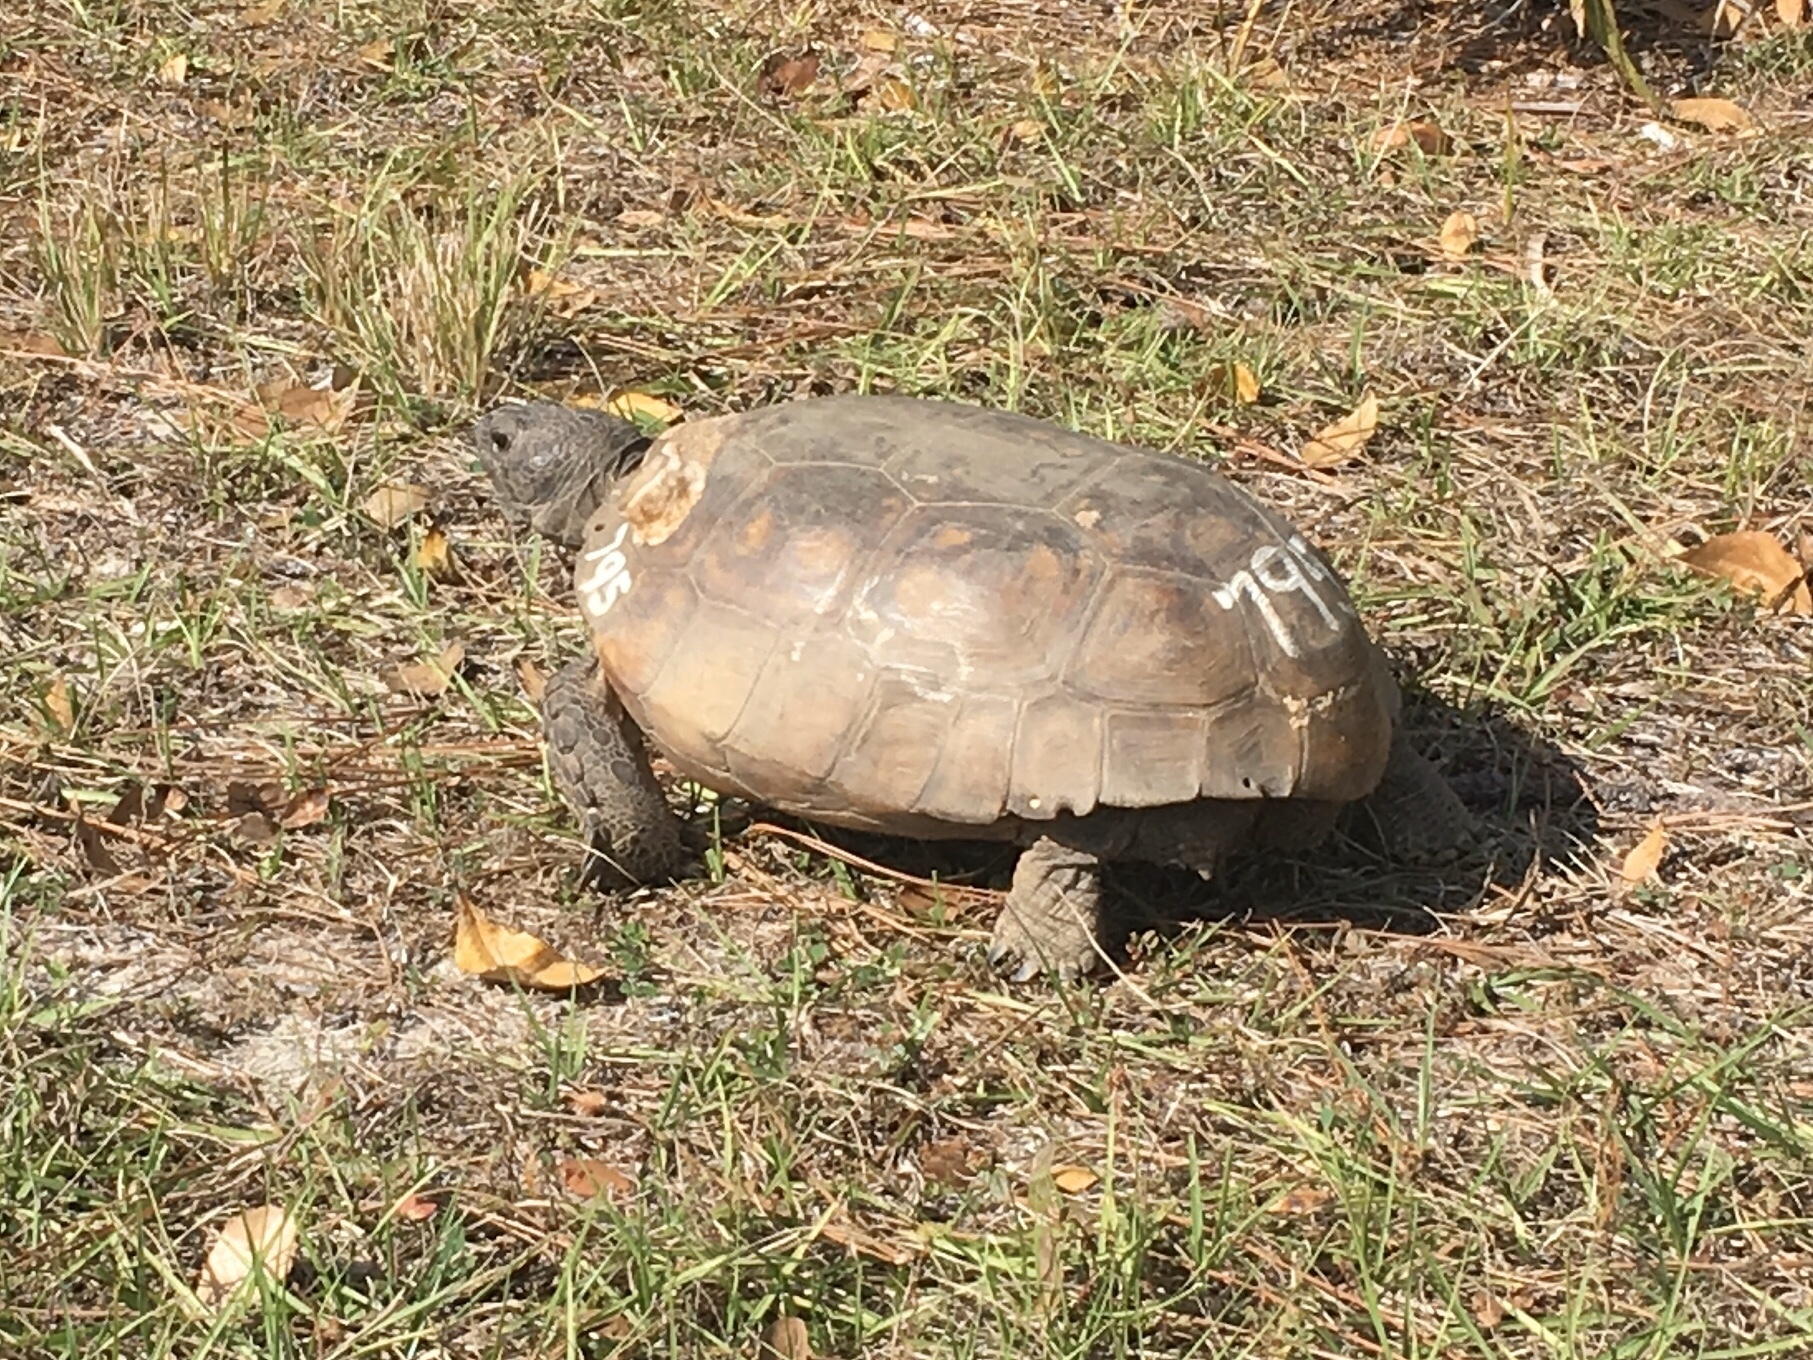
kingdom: Animalia
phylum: Chordata
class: Testudines
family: Testudinidae
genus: Gopherus
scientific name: Gopherus polyphemus
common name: Florida gopher tortoise
